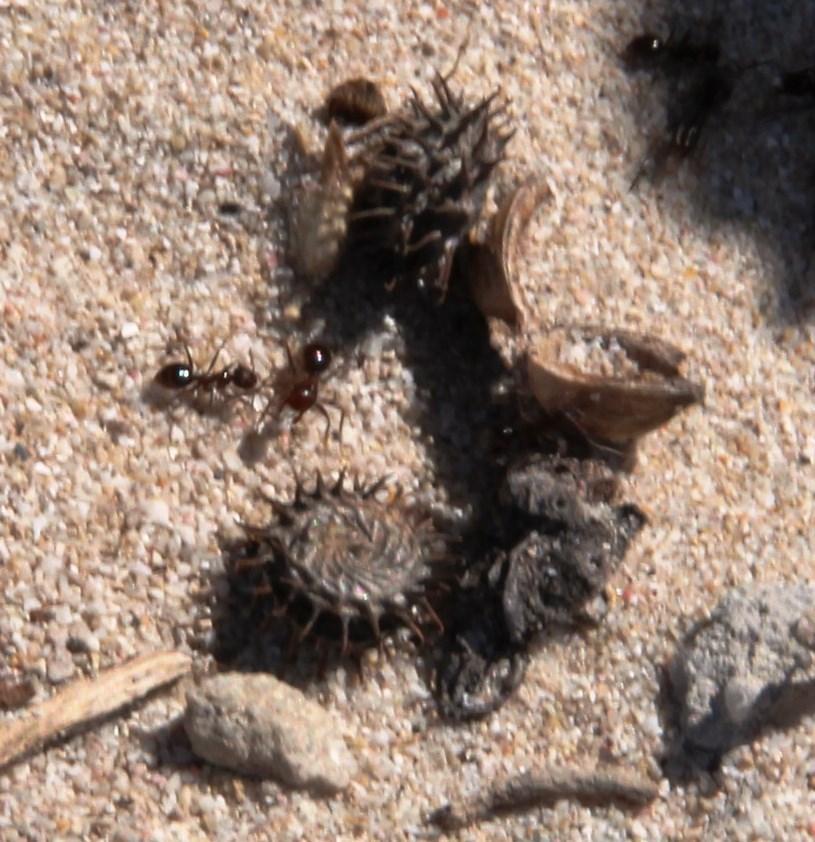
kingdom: Plantae
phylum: Tracheophyta
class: Magnoliopsida
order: Fabales
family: Fabaceae
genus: Medicago
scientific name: Medicago polymorpha
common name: Burclover
